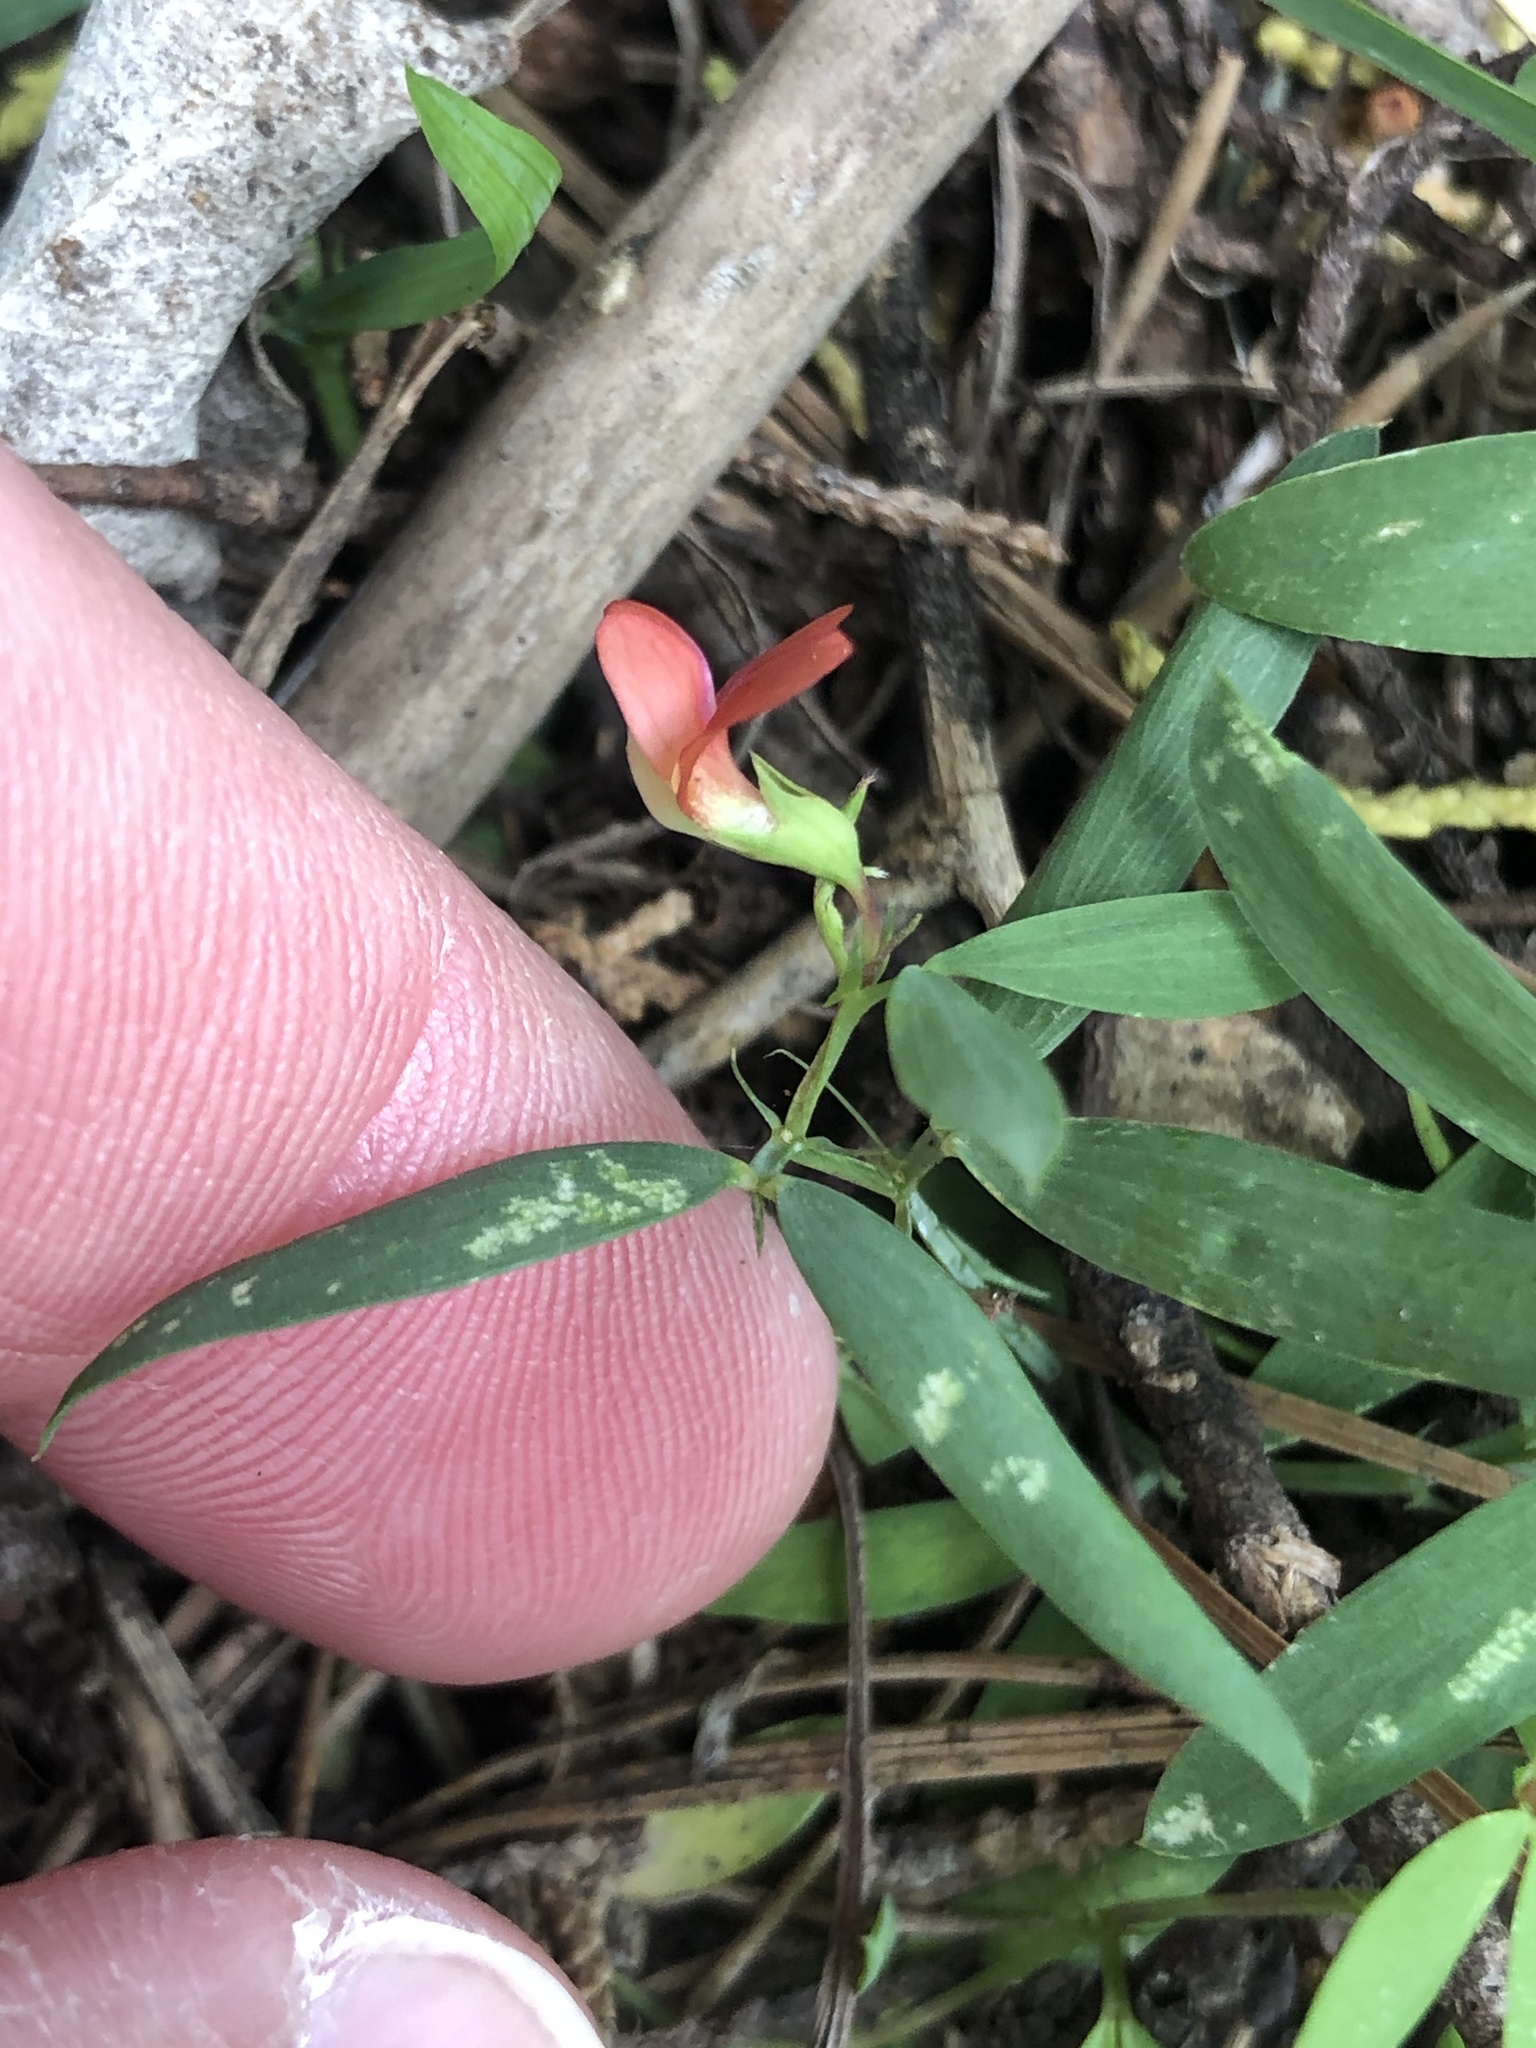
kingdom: Plantae
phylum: Tracheophyta
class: Magnoliopsida
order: Fabales
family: Fabaceae
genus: Lathyrus
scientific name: Lathyrus sphaericus
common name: Grass pea
